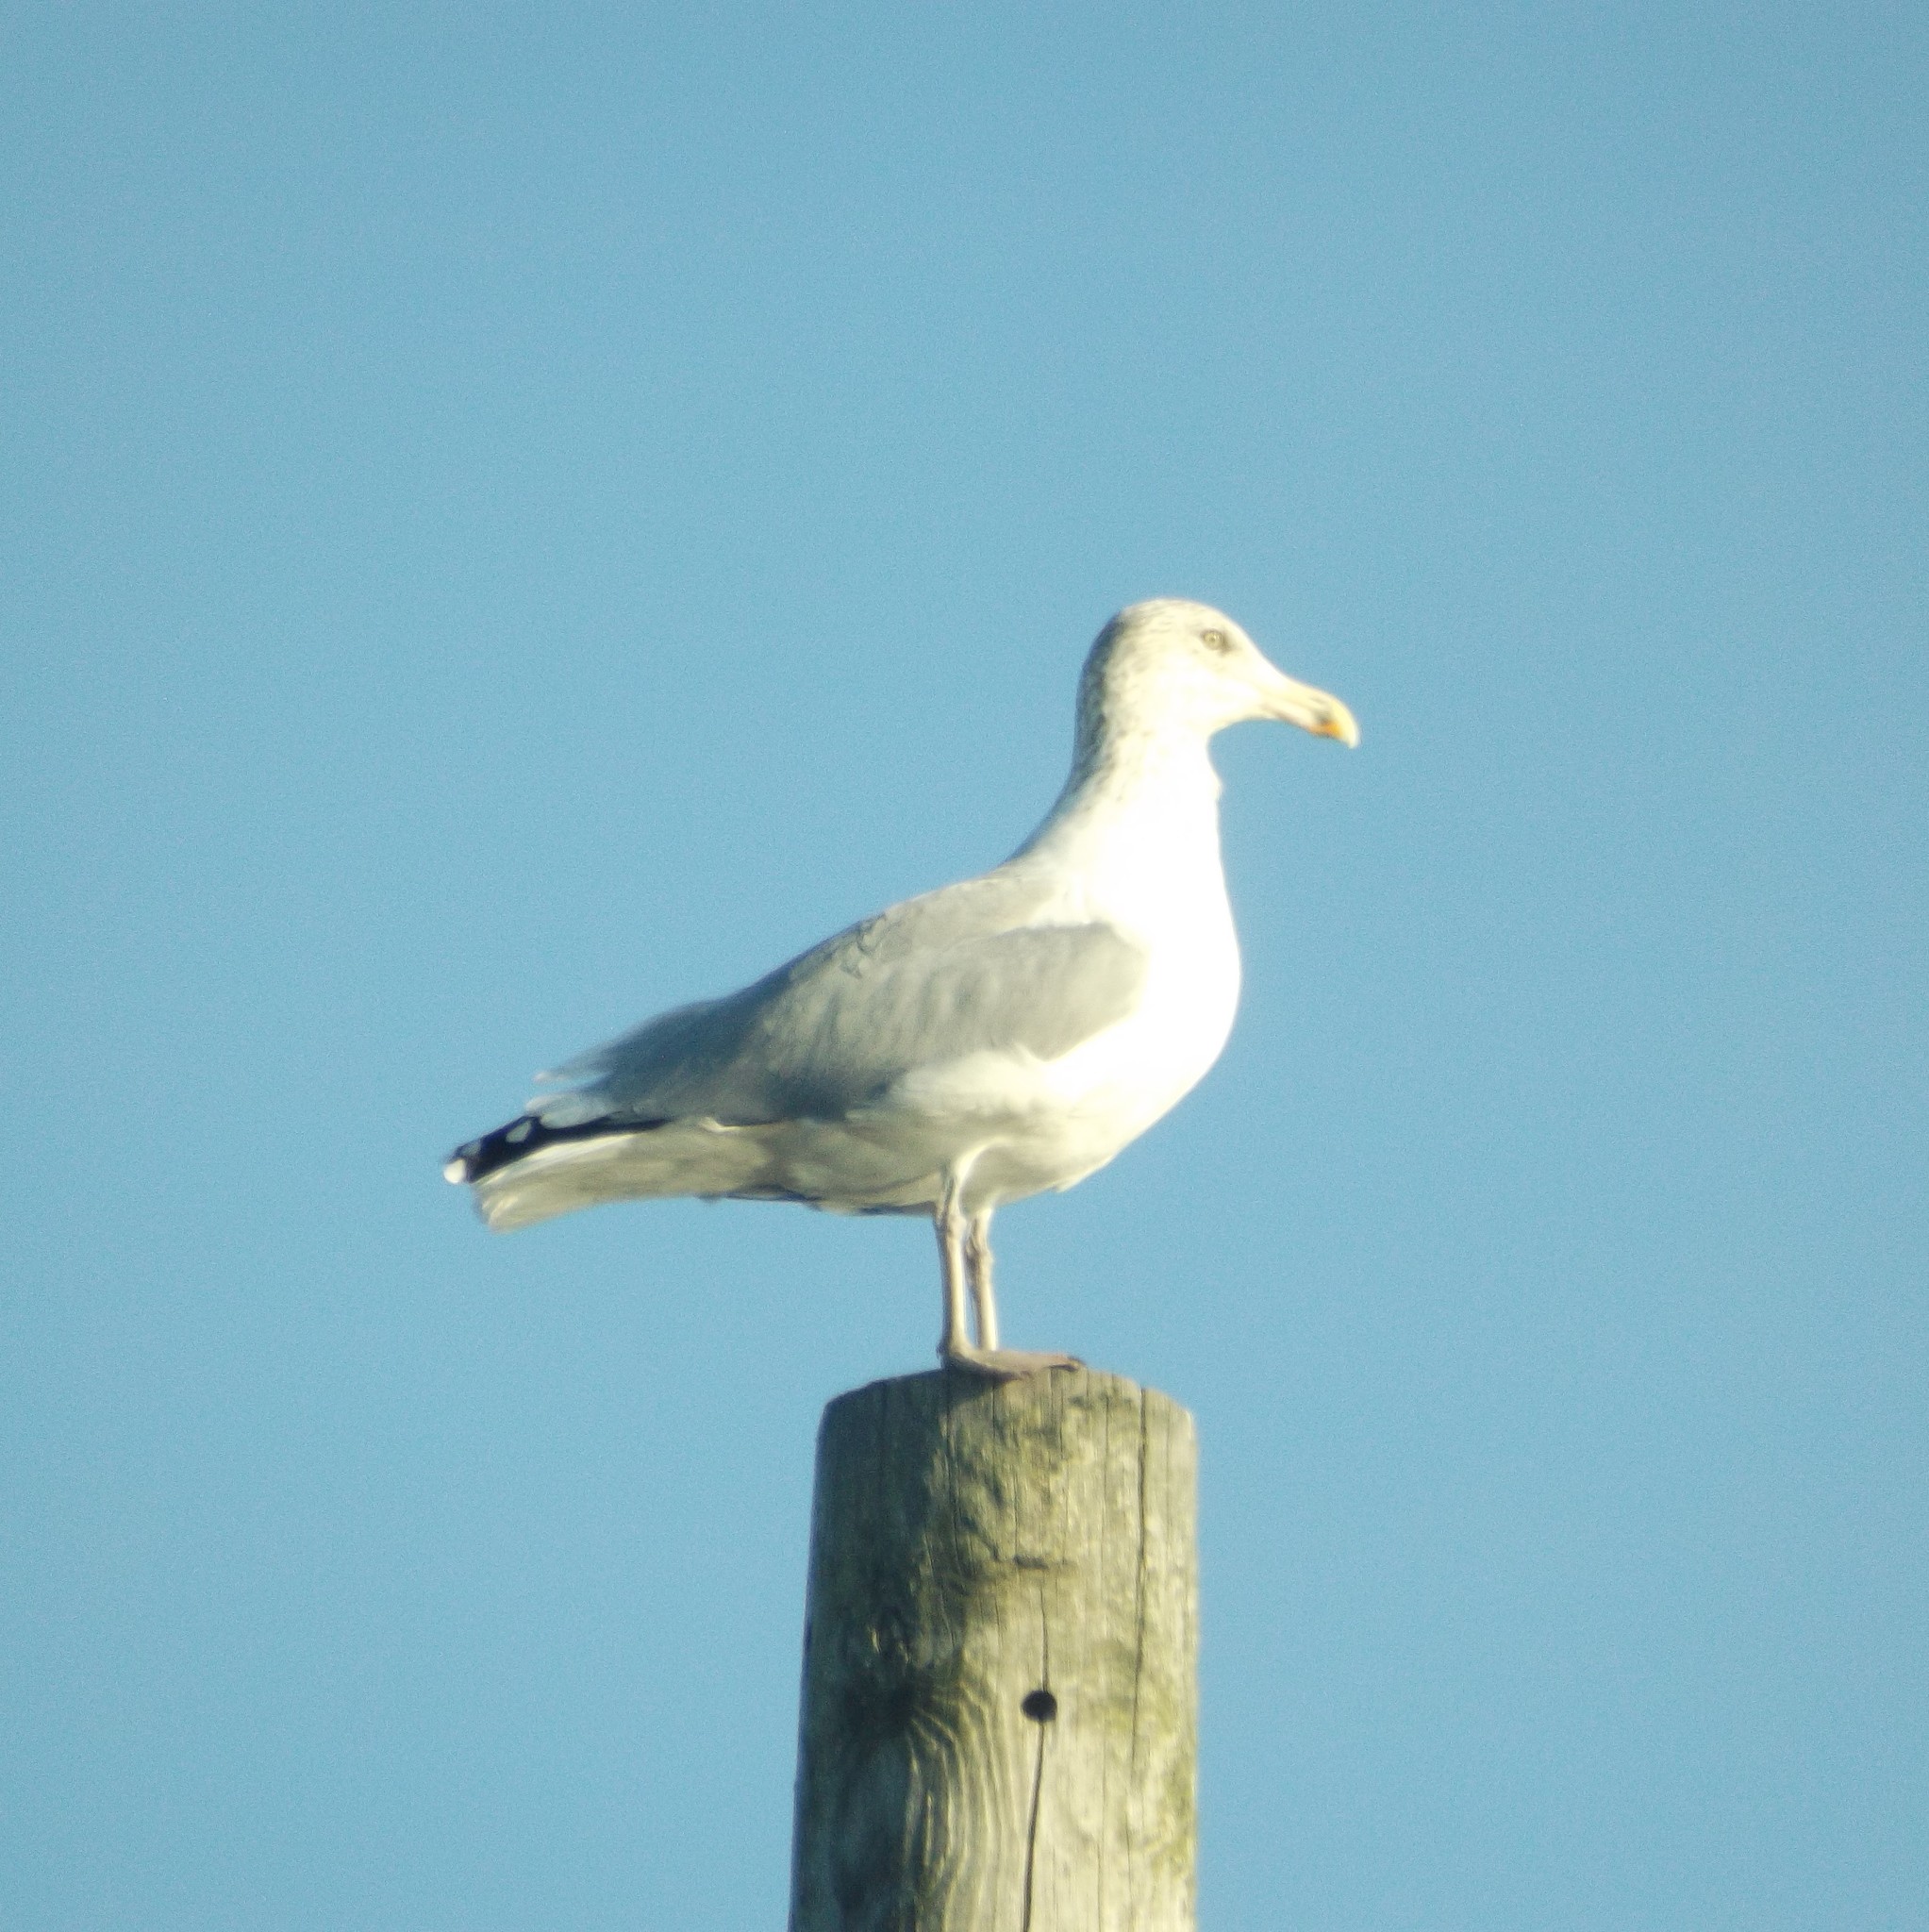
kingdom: Animalia
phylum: Chordata
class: Aves
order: Charadriiformes
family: Laridae
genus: Larus
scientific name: Larus argentatus
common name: Herring gull
